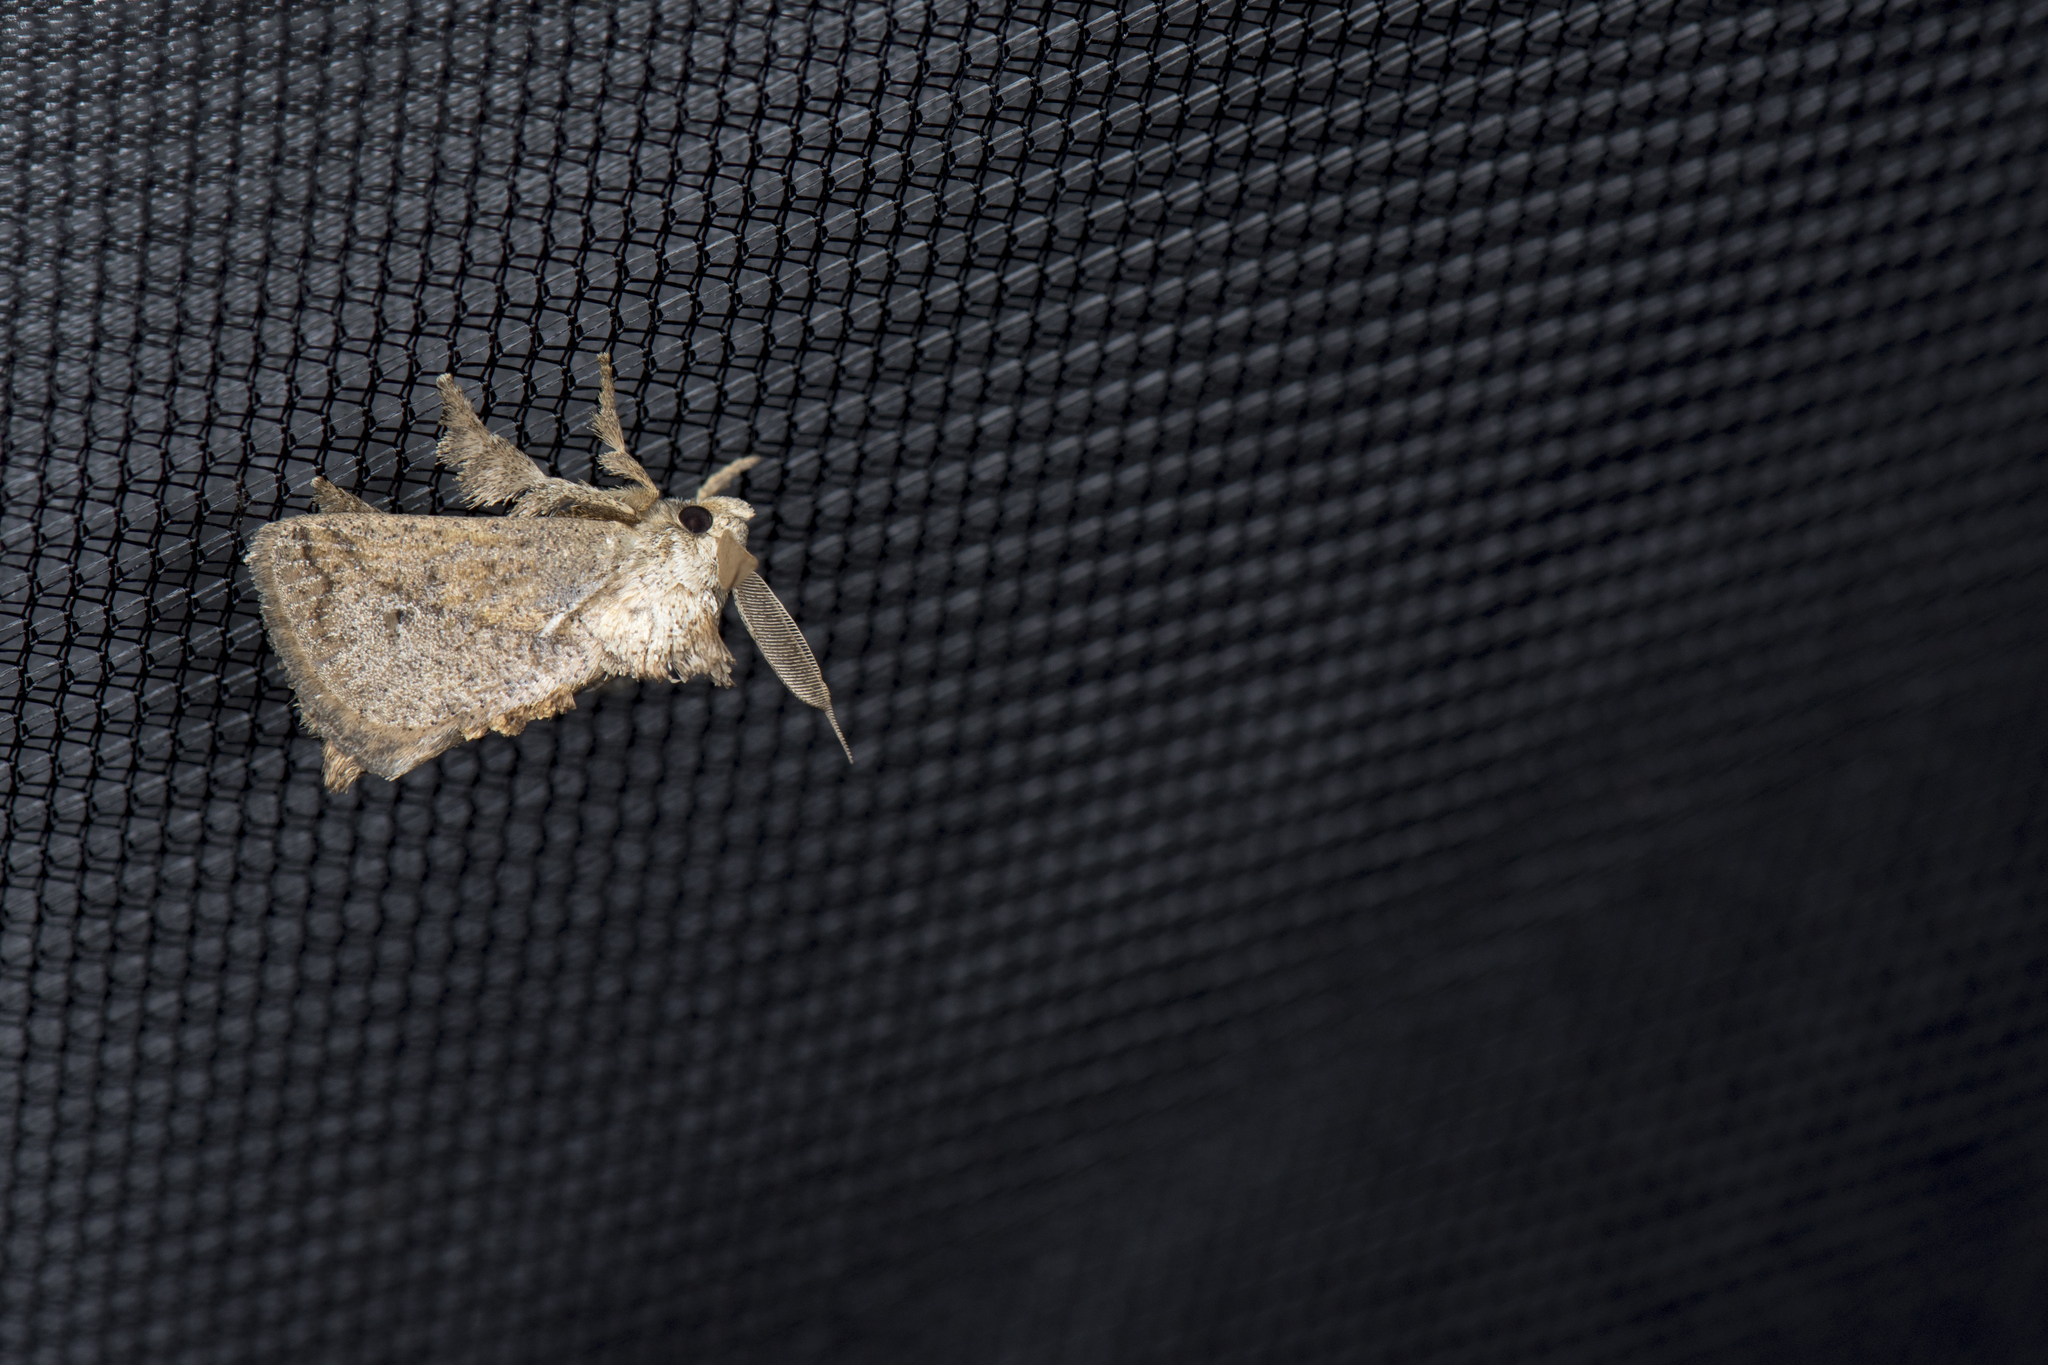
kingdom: Animalia
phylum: Arthropoda
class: Insecta
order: Lepidoptera
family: Limacodidae
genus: Susica
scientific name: Susica sinensis
